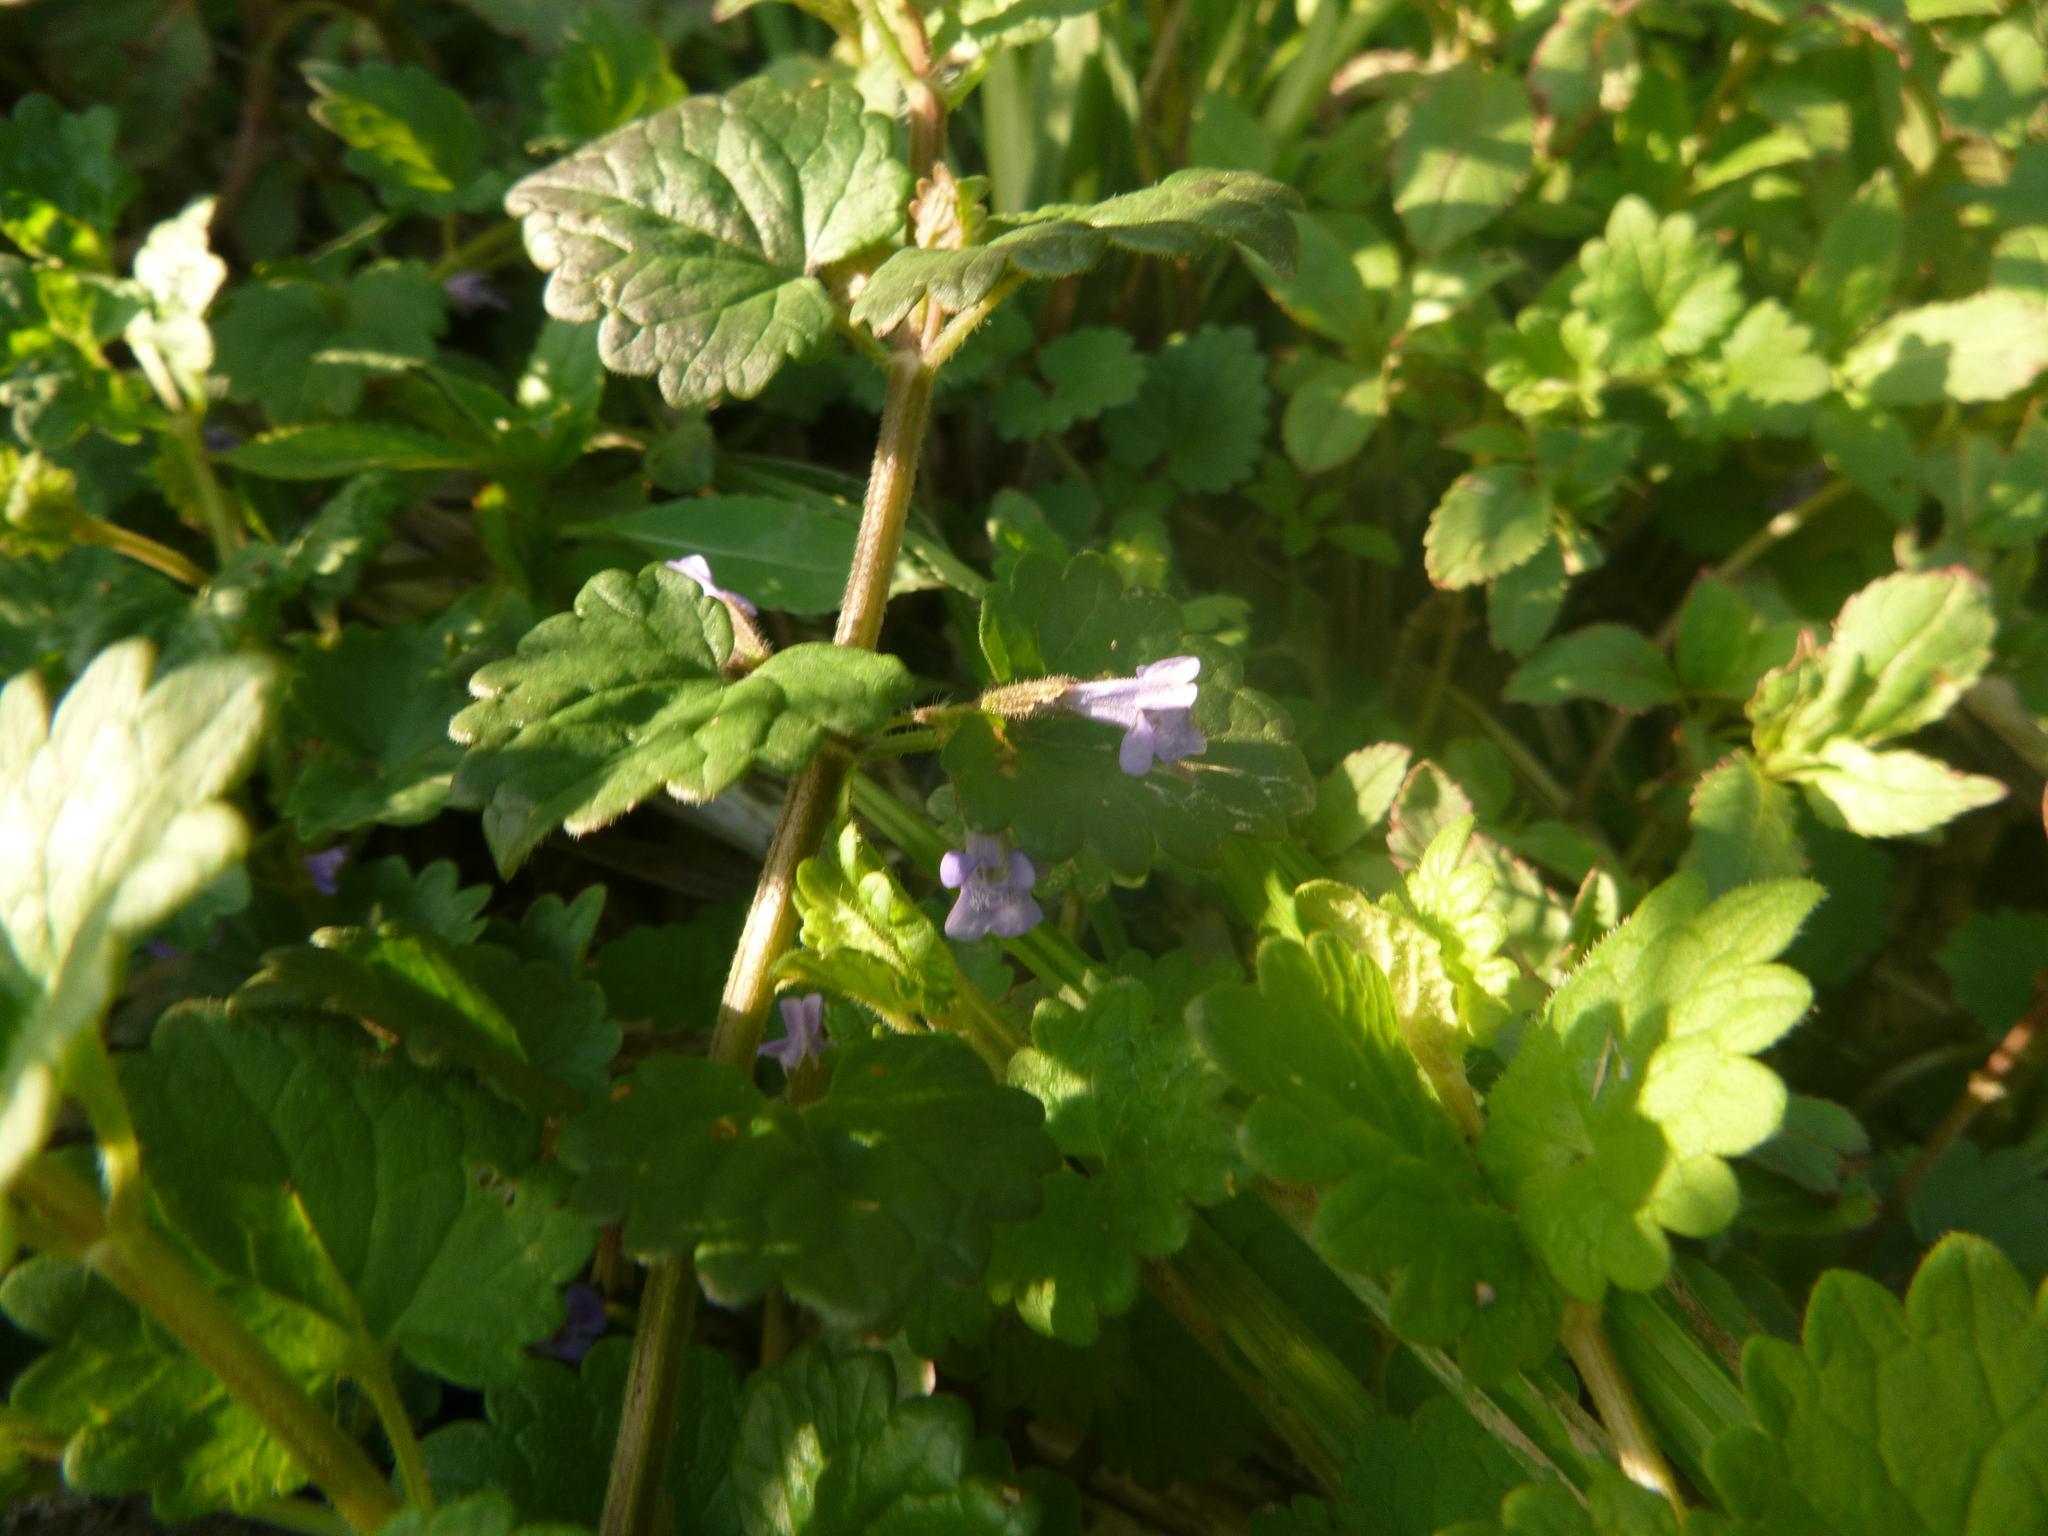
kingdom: Plantae
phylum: Tracheophyta
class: Magnoliopsida
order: Lamiales
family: Lamiaceae
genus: Glechoma
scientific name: Glechoma hederacea
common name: Ground ivy
